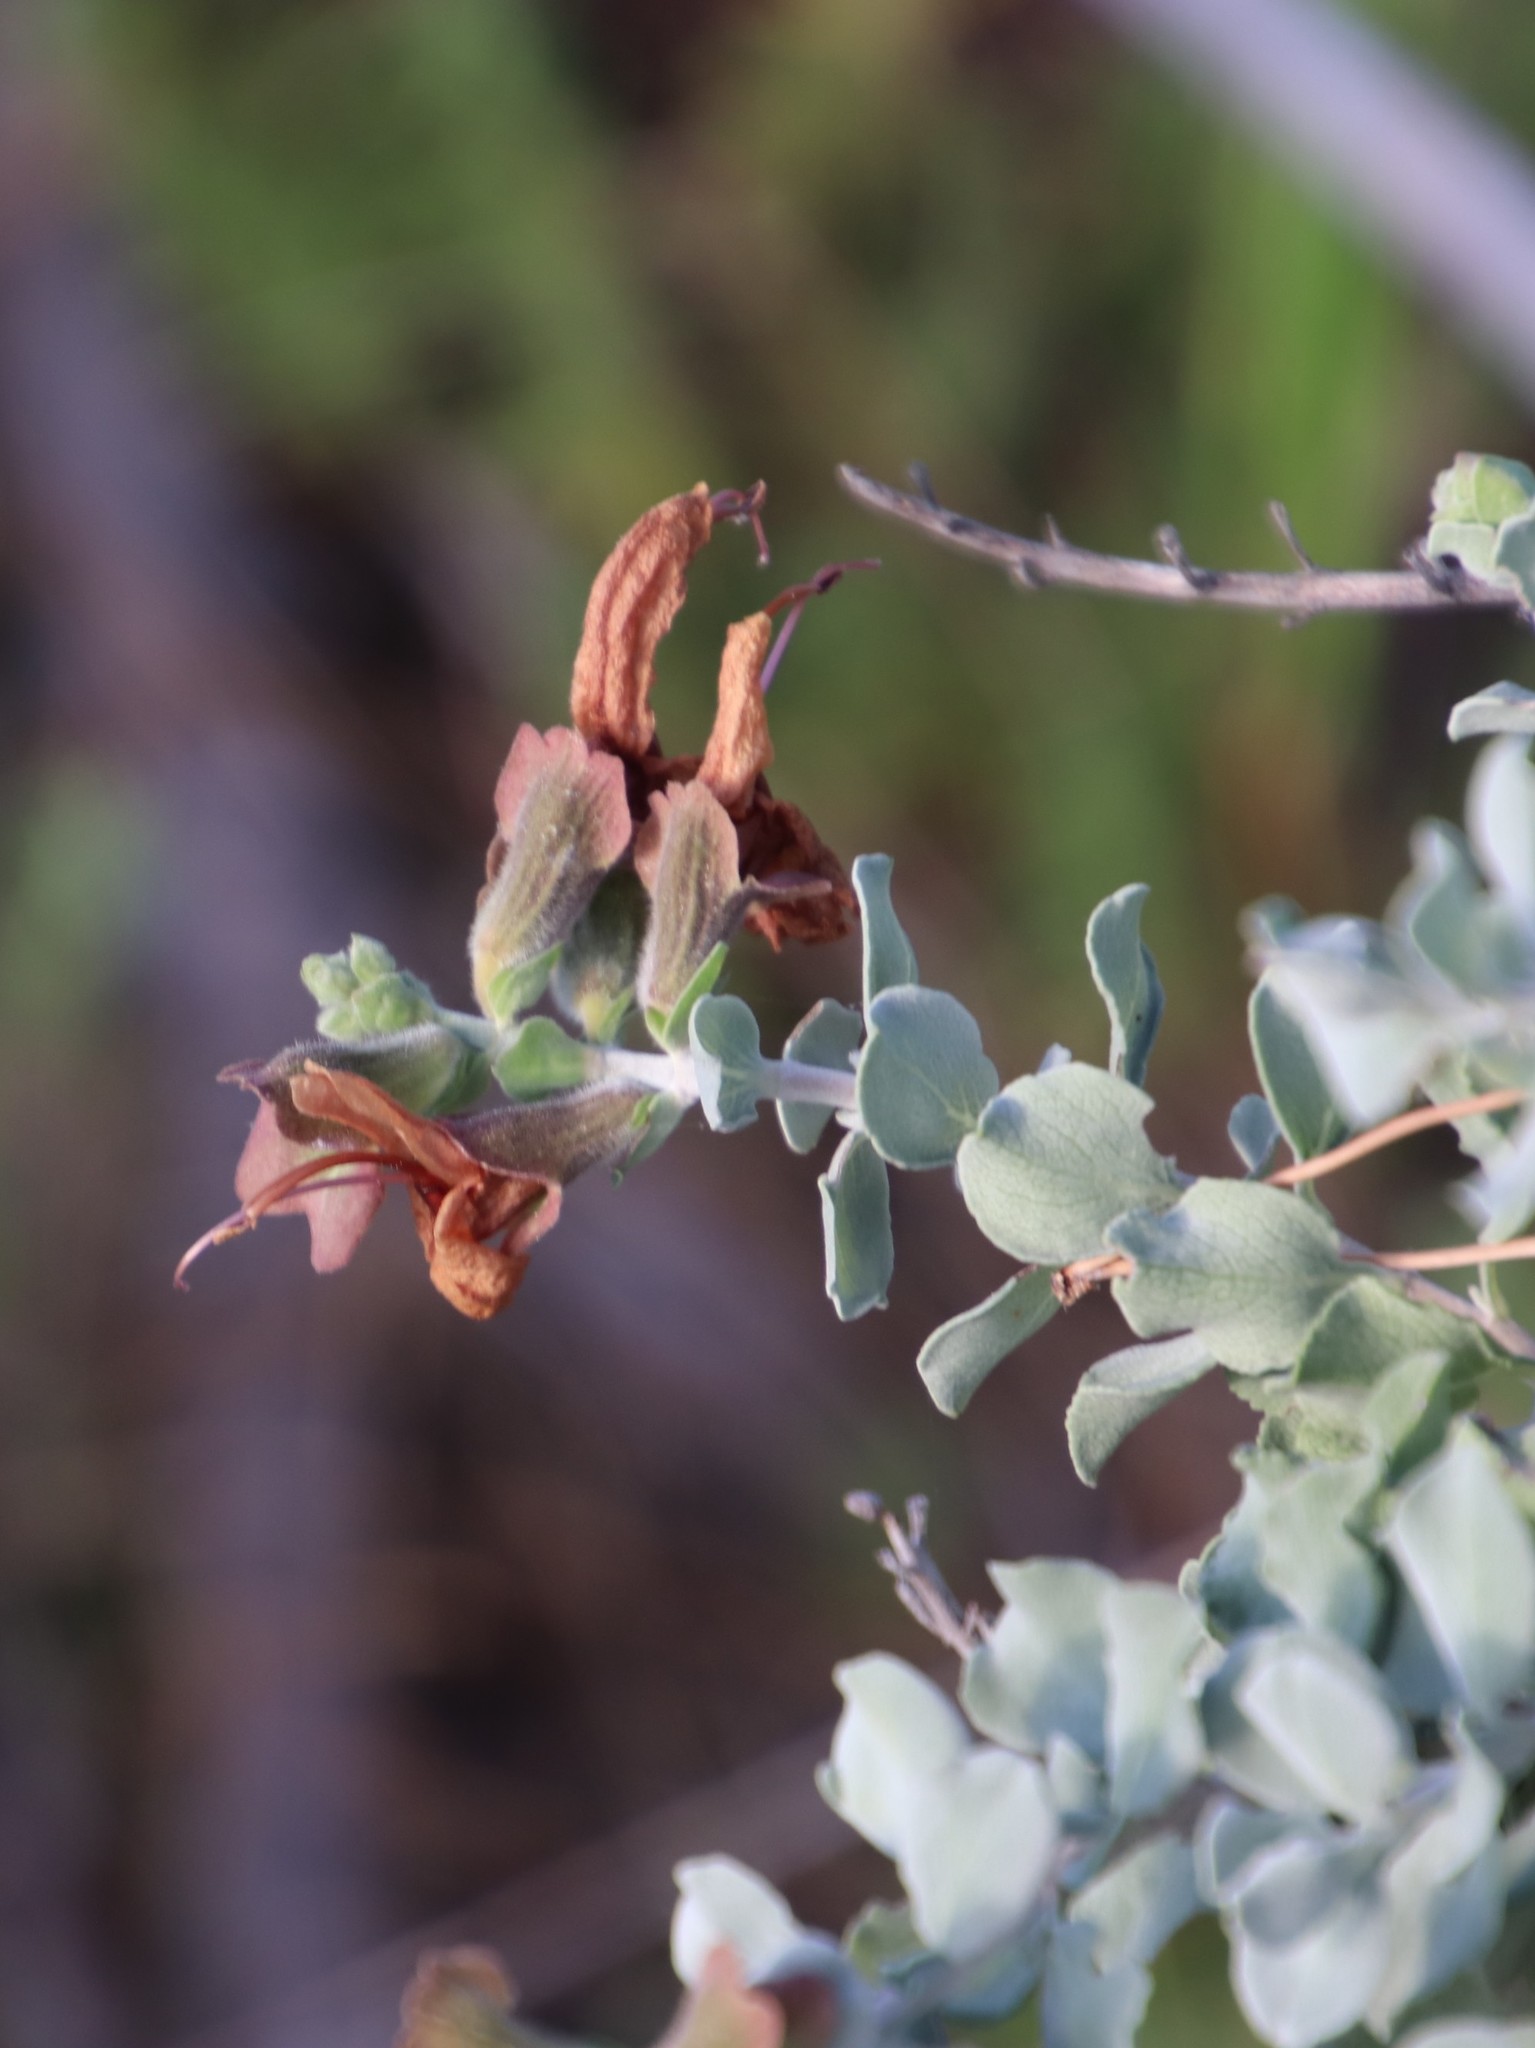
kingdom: Plantae
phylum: Tracheophyta
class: Magnoliopsida
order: Lamiales
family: Lamiaceae
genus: Salvia
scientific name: Salvia aurea
